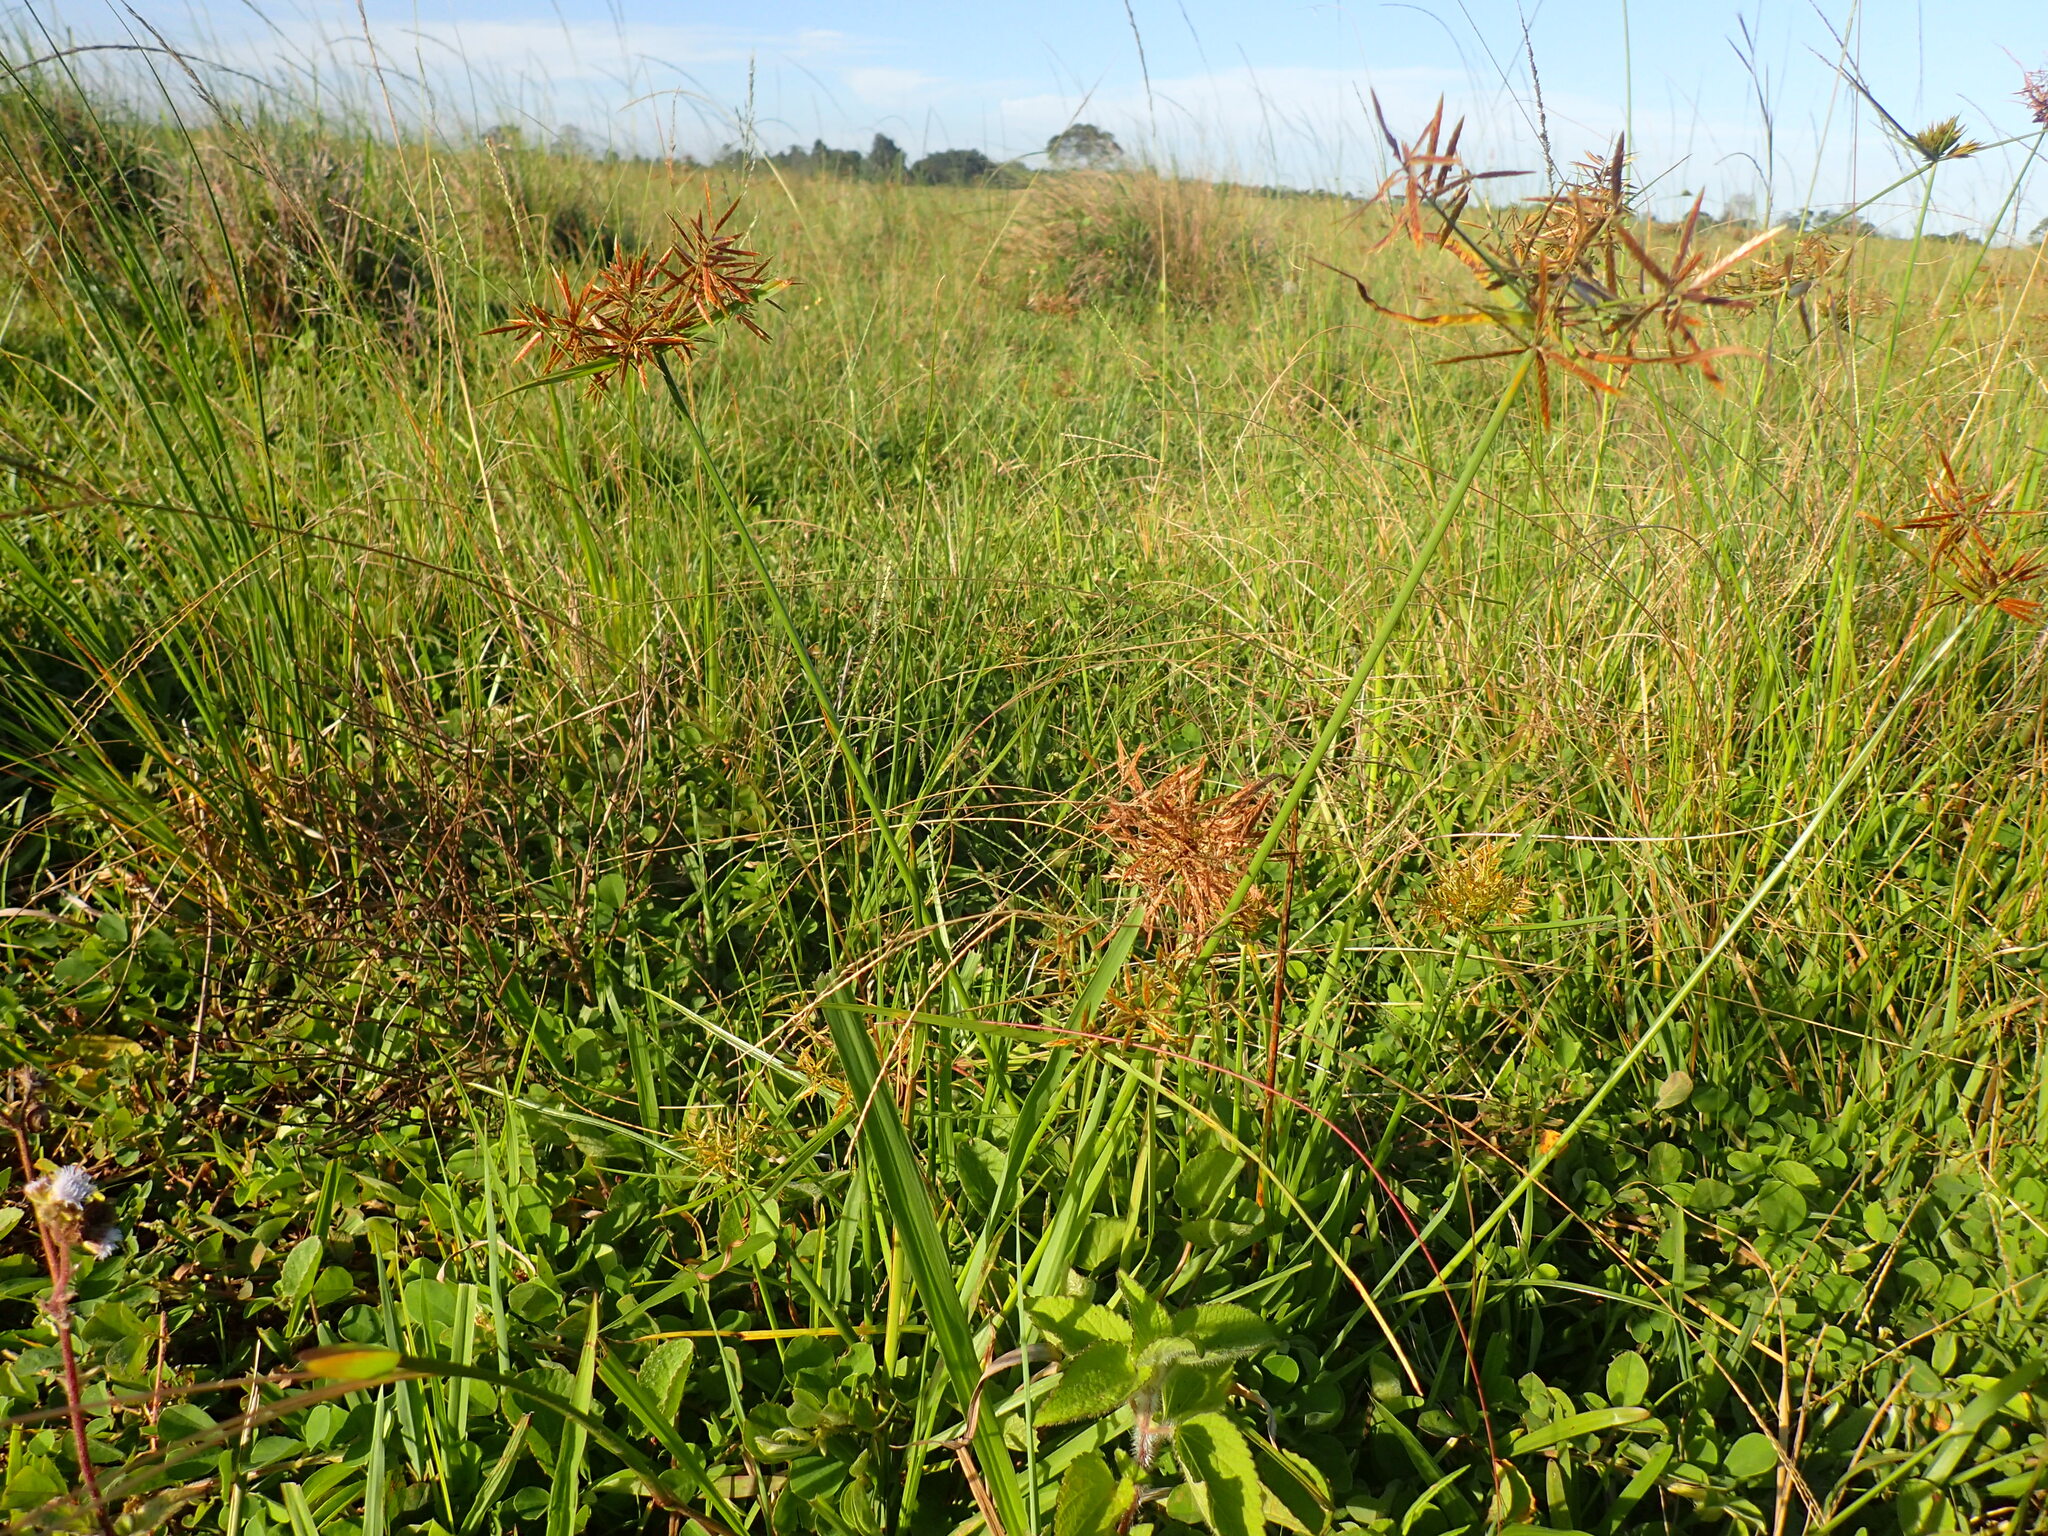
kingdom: Plantae
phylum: Tracheophyta
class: Liliopsida
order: Poales
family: Cyperaceae
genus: Cyperus
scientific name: Cyperus intactus
